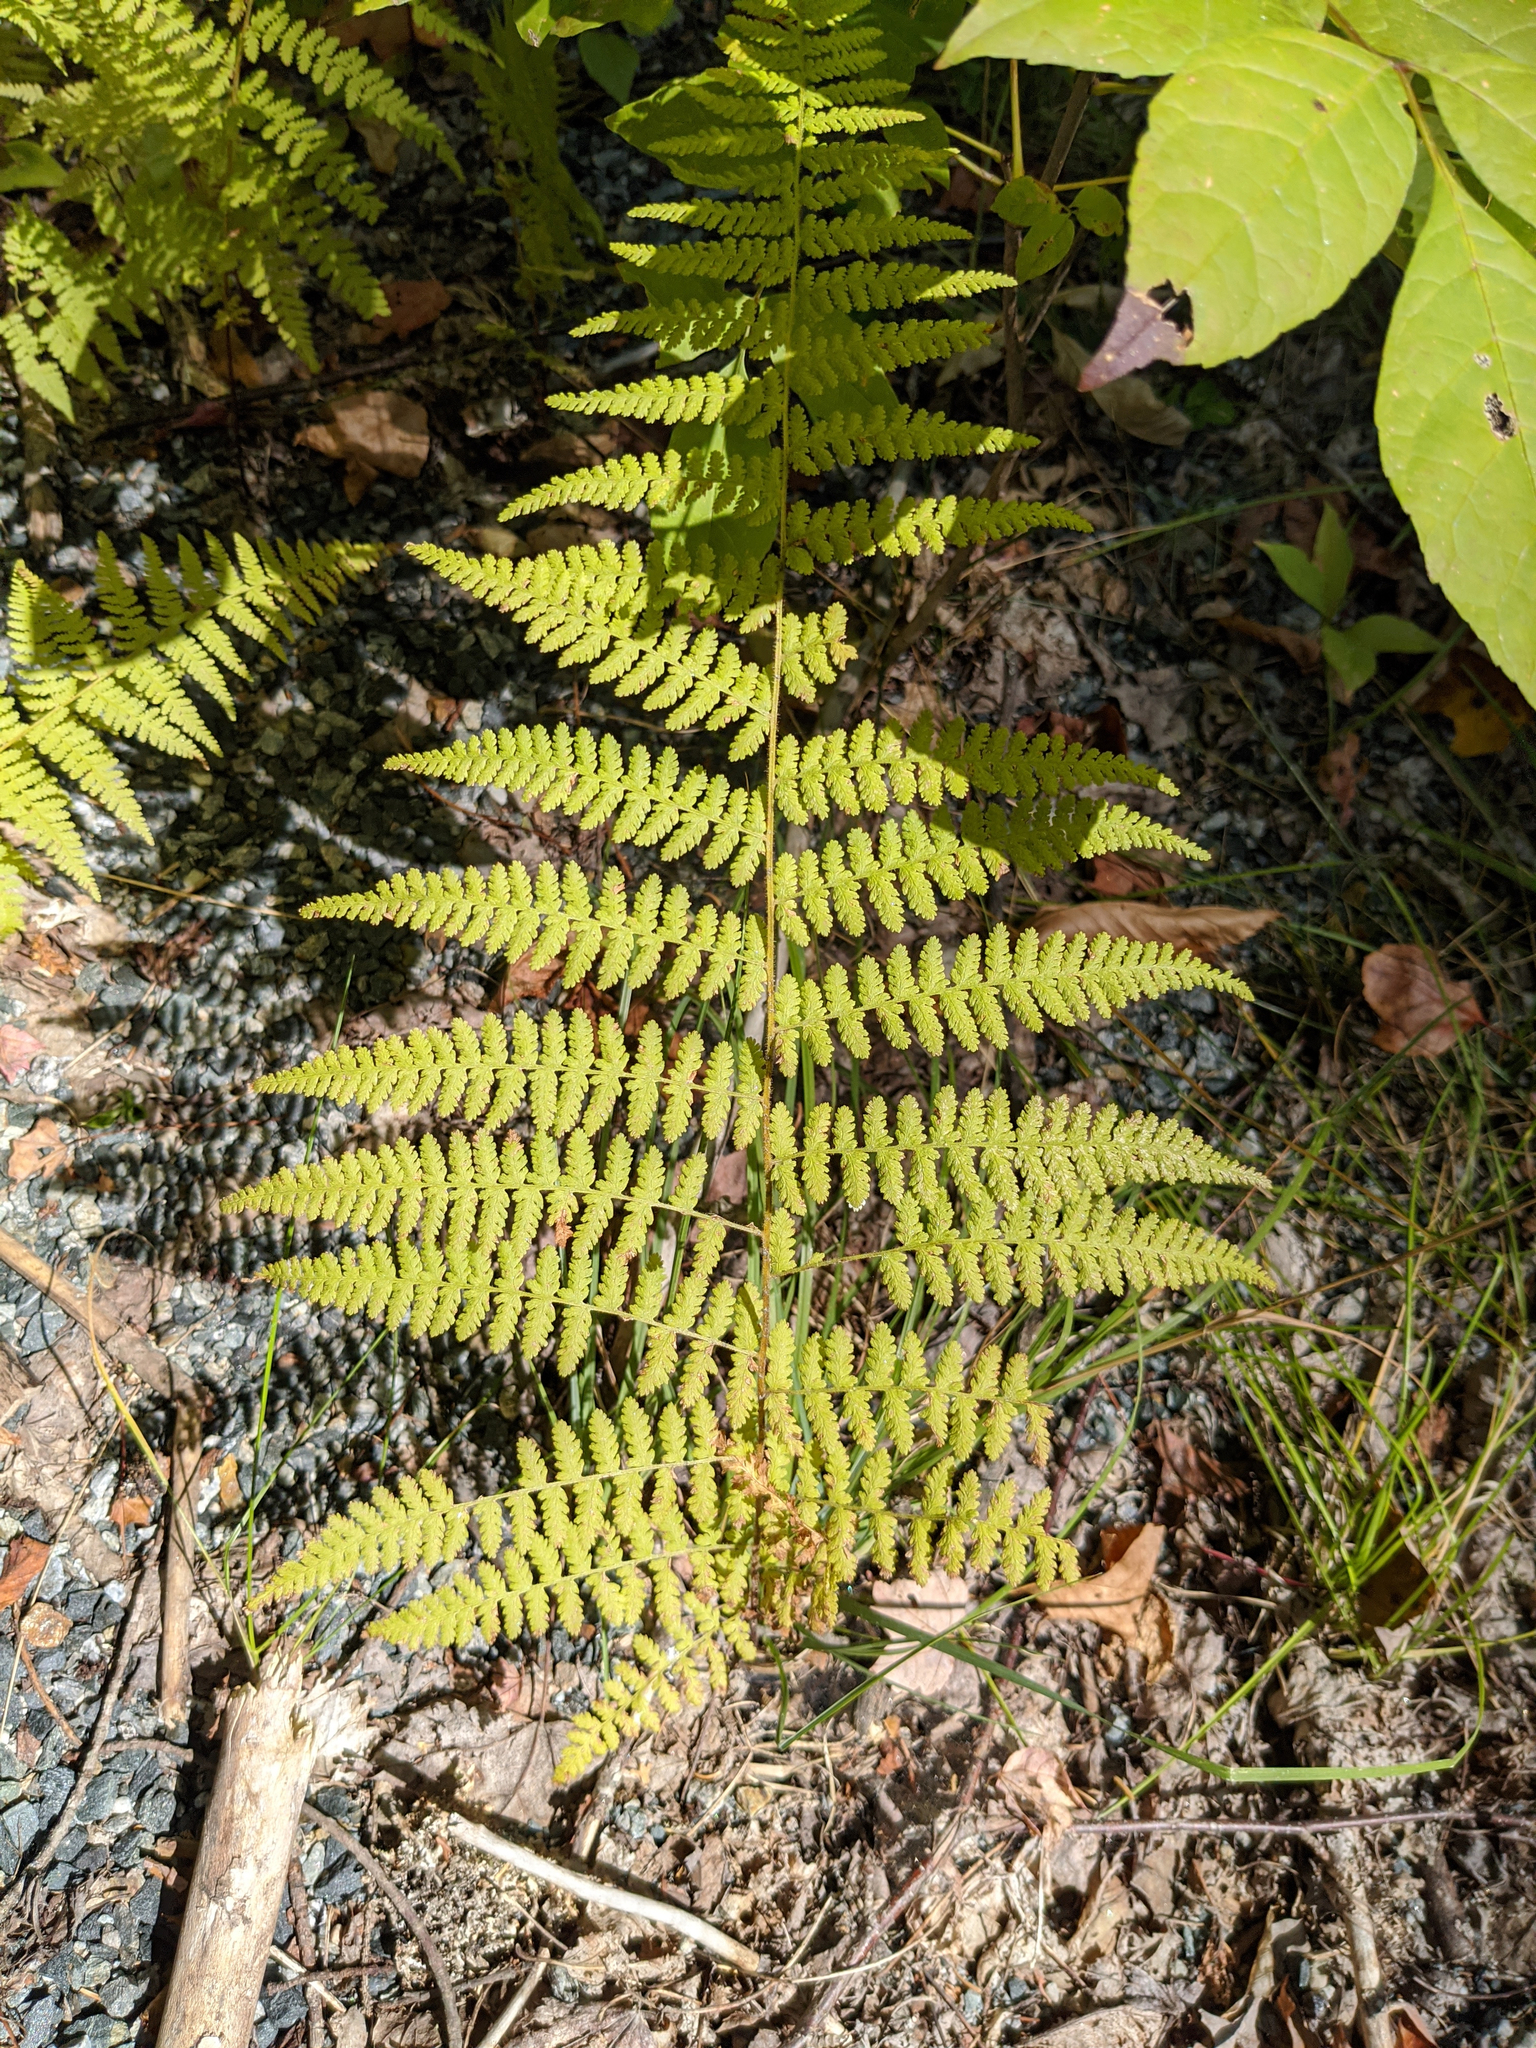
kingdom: Plantae
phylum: Tracheophyta
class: Polypodiopsida
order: Polypodiales
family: Dennstaedtiaceae
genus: Sitobolium
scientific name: Sitobolium punctilobum
